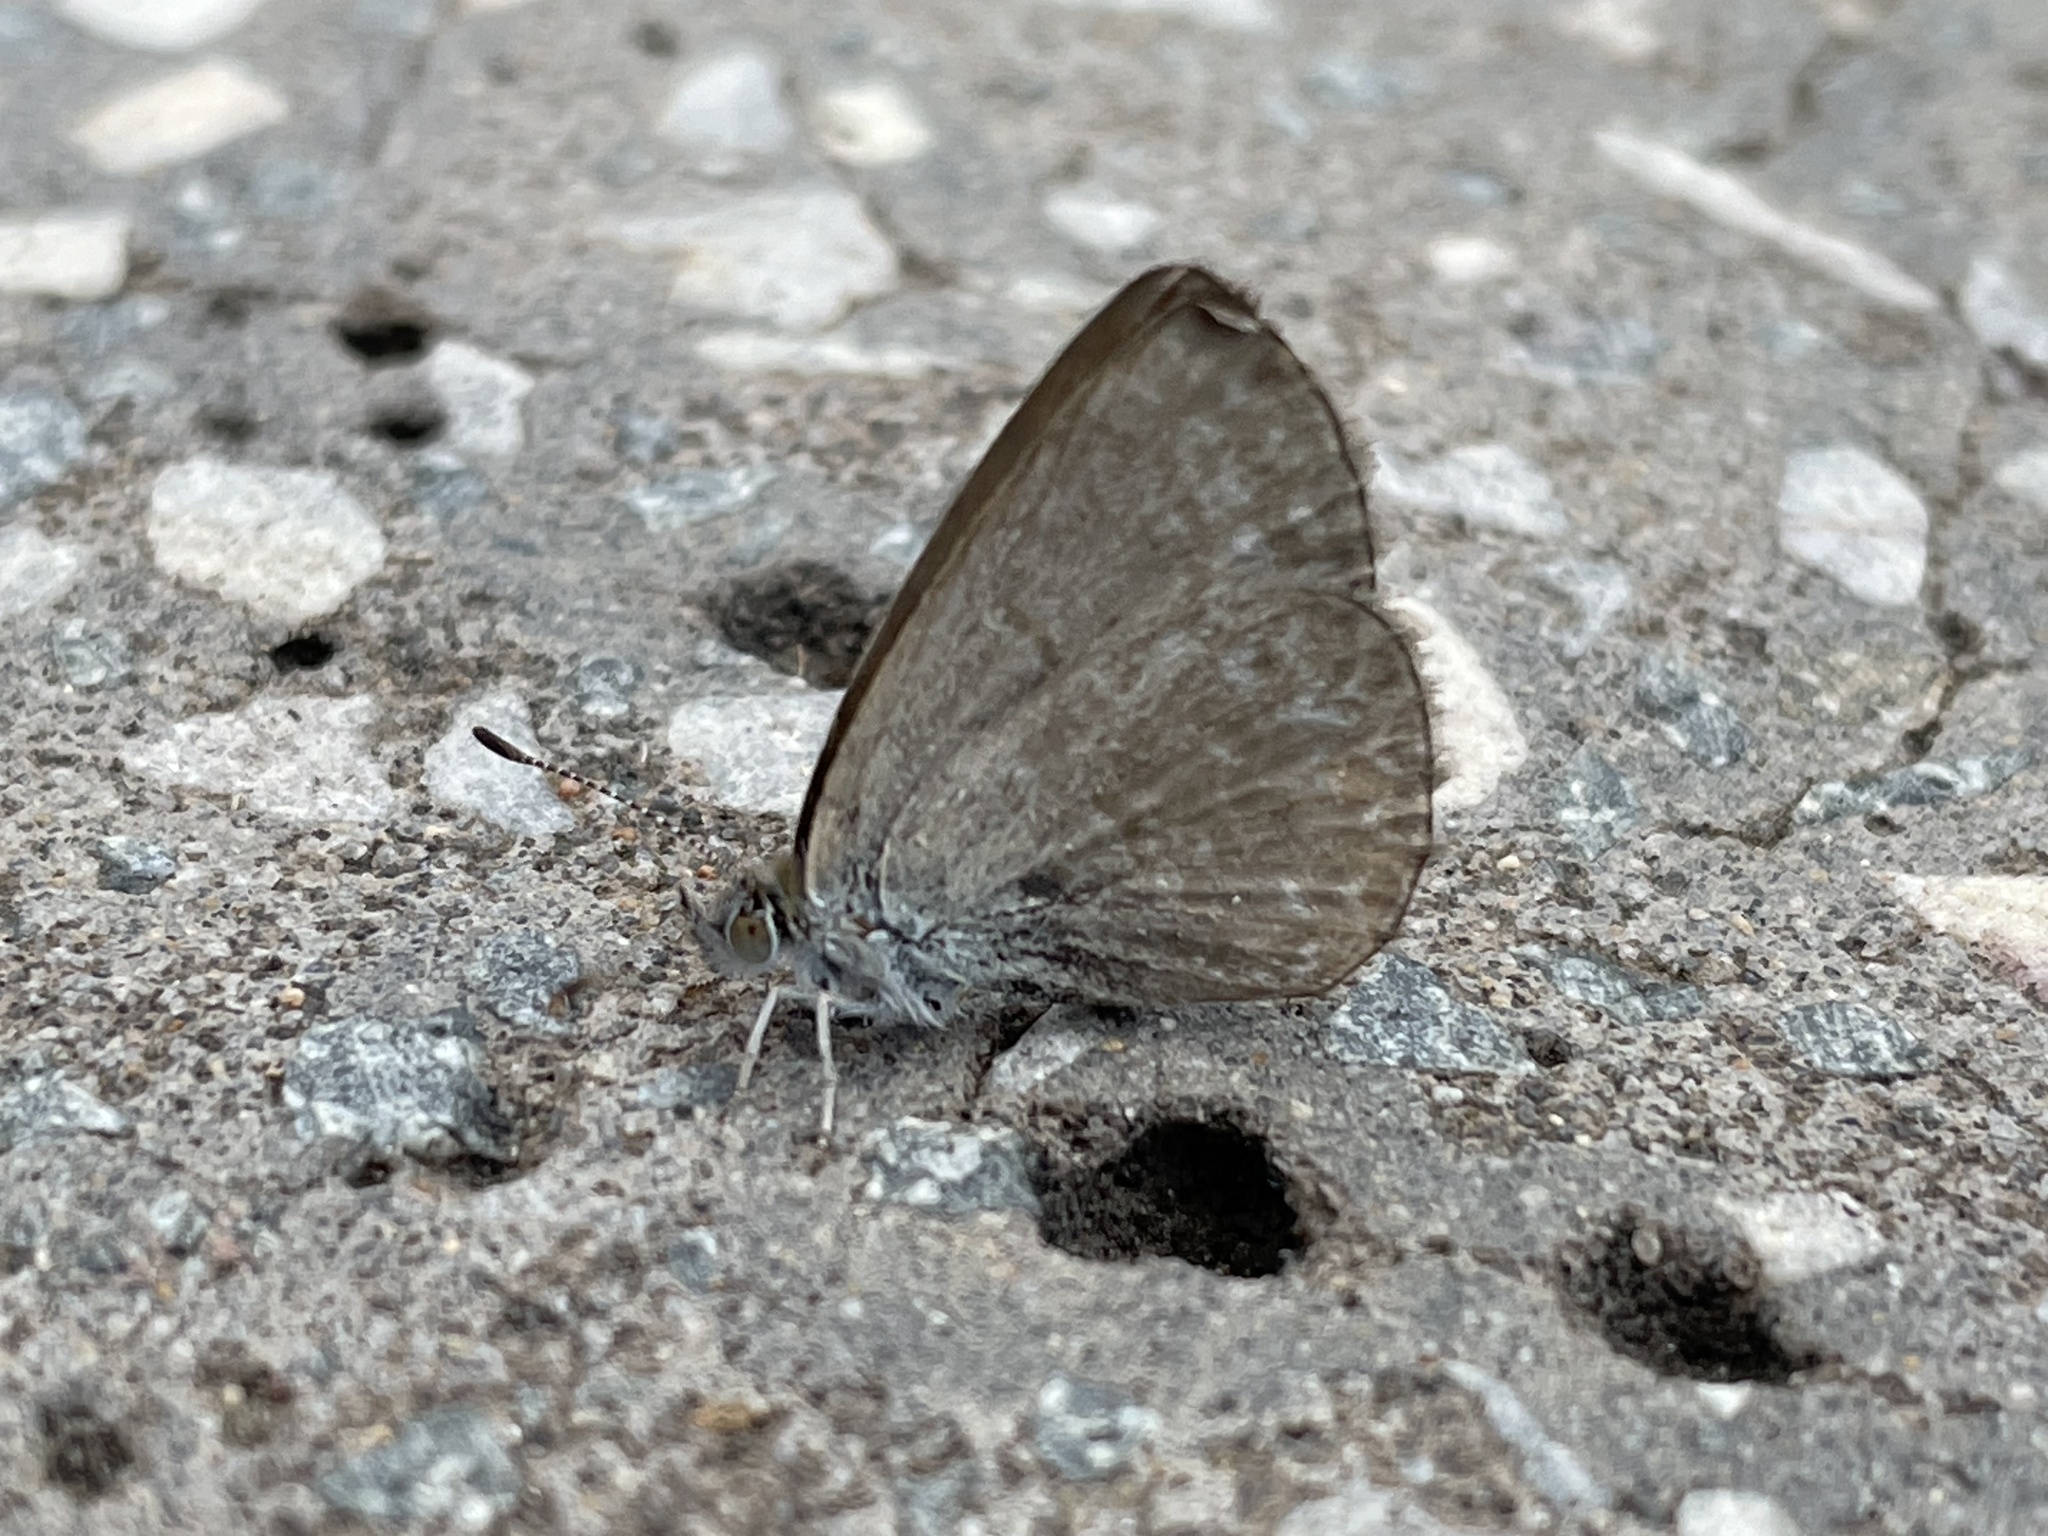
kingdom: Animalia
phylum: Arthropoda
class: Insecta
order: Lepidoptera
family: Lycaenidae
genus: Zizina
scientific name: Zizina otis
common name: Lesser grass blue
